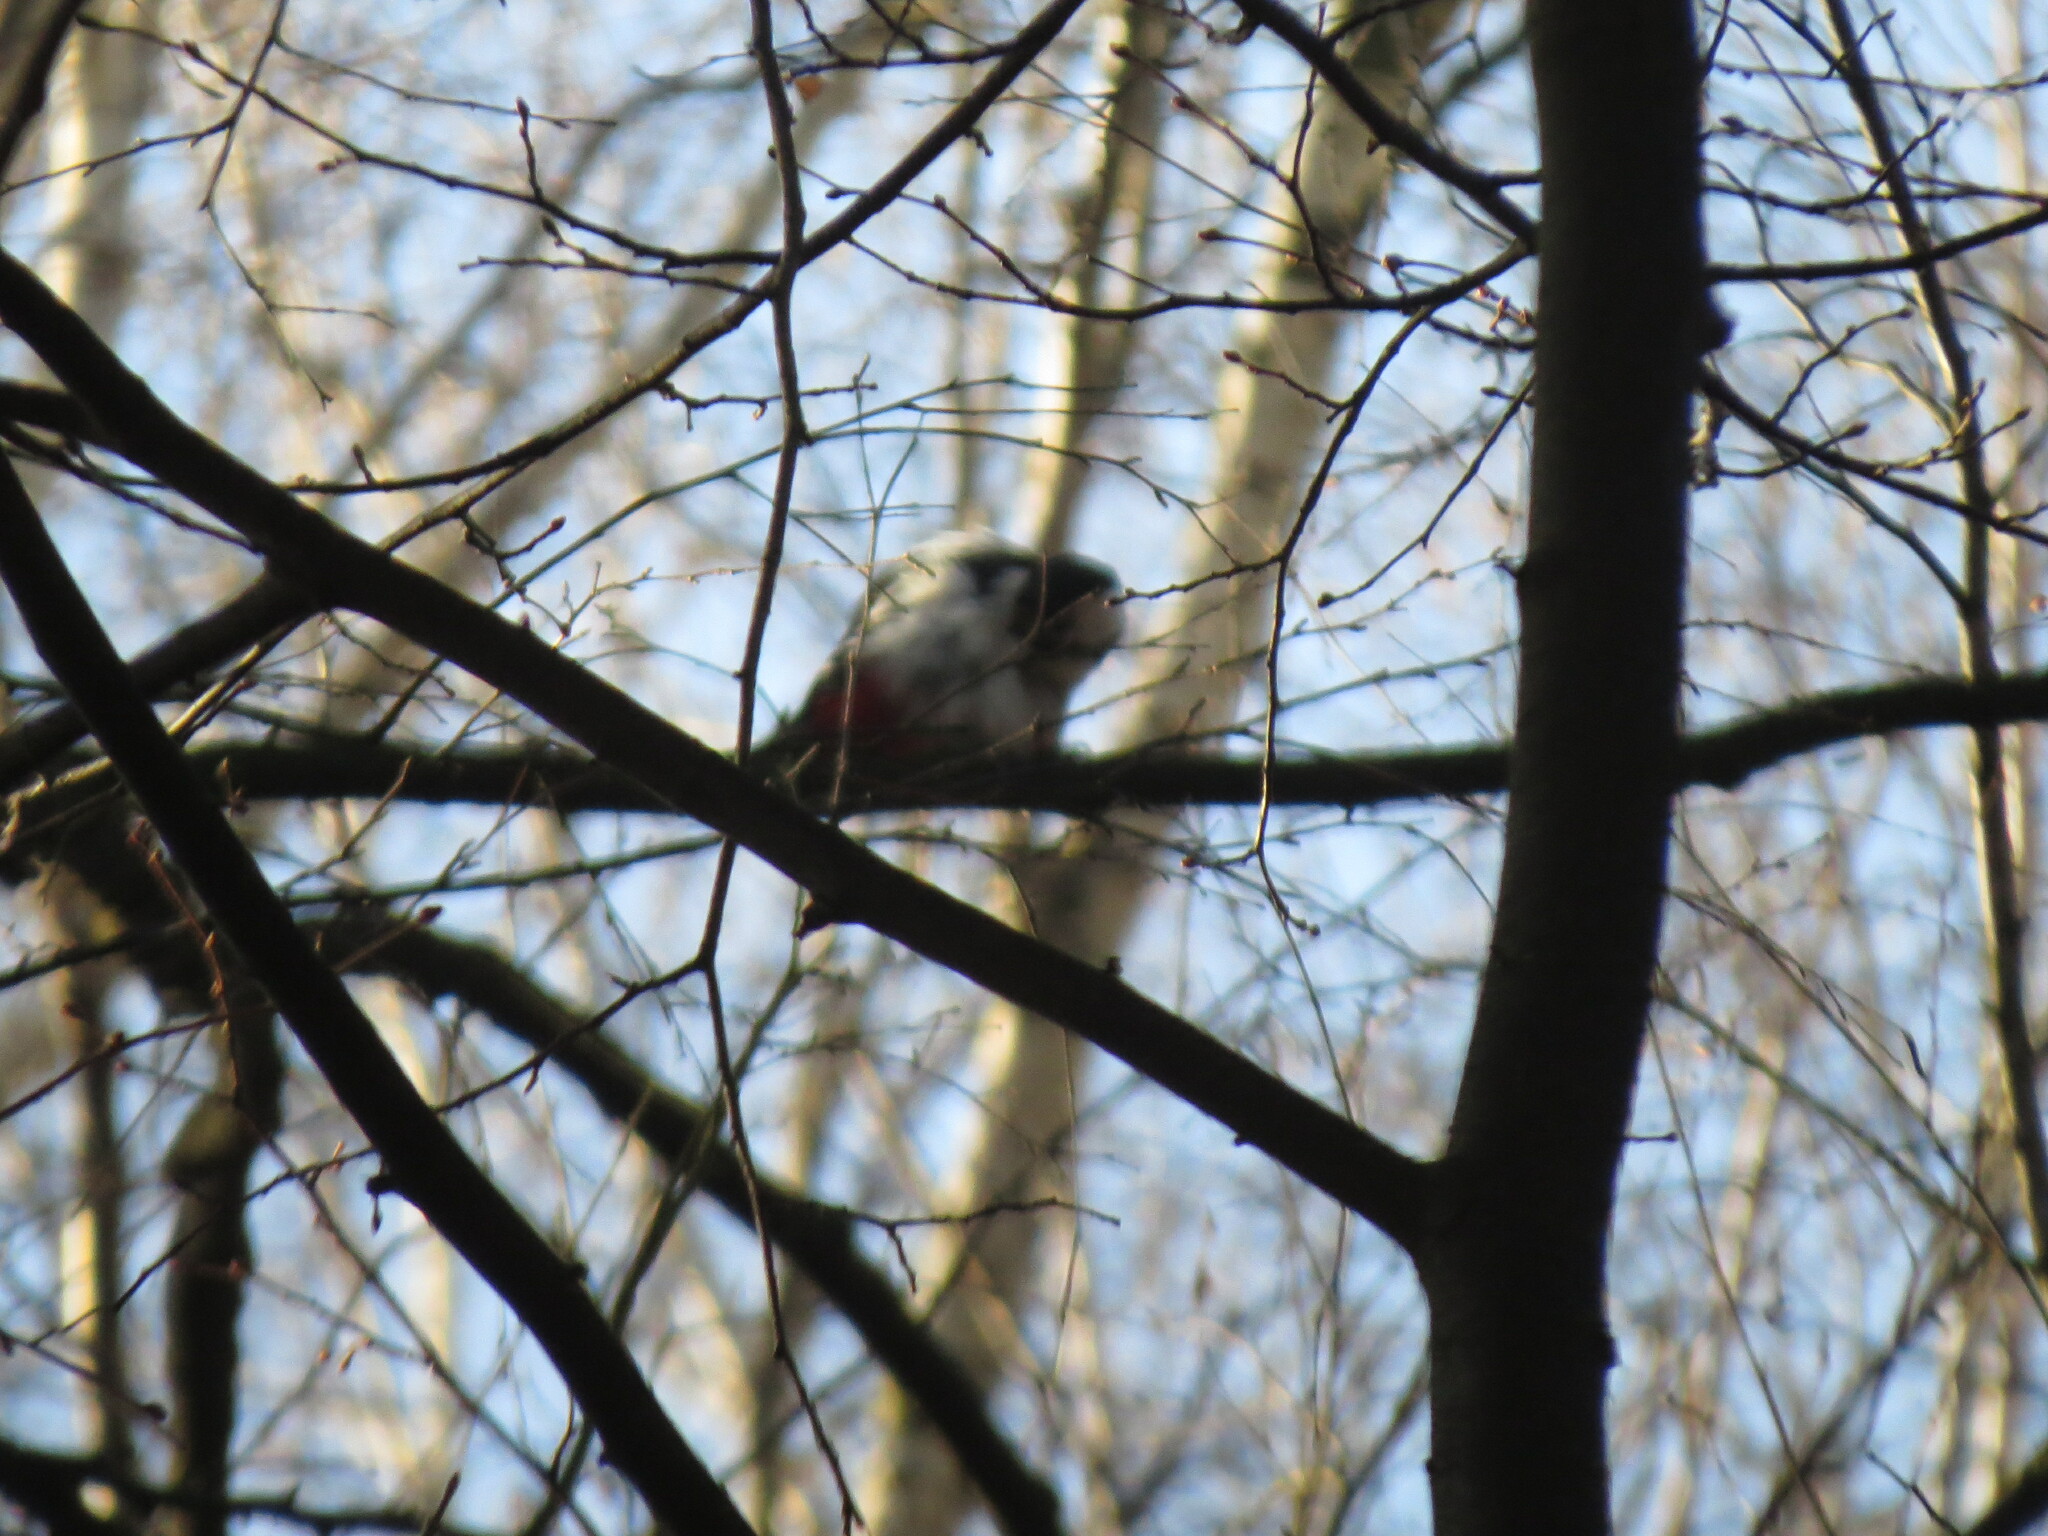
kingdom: Animalia
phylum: Chordata
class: Aves
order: Piciformes
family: Picidae
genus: Dendrocopos
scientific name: Dendrocopos major
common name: Great spotted woodpecker
